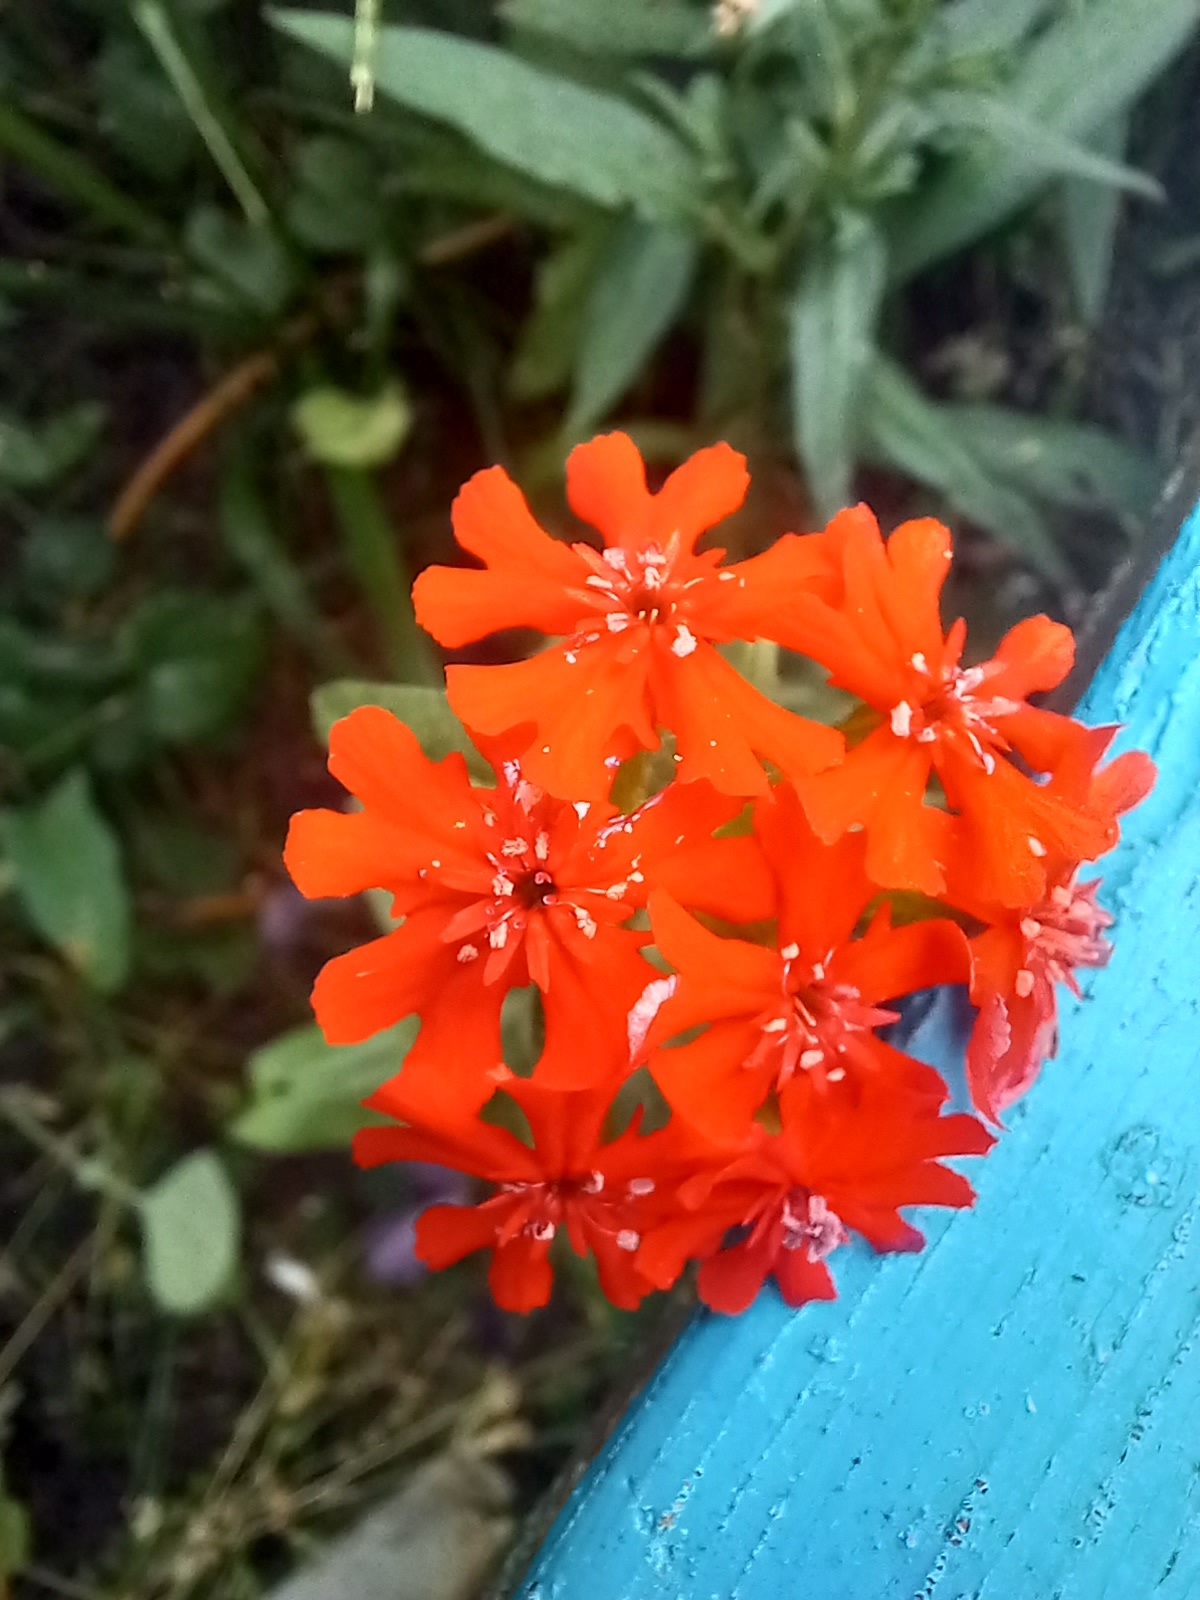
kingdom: Plantae
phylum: Tracheophyta
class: Magnoliopsida
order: Caryophyllales
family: Caryophyllaceae
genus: Silene
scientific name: Silene chalcedonica
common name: Maltese-cross
